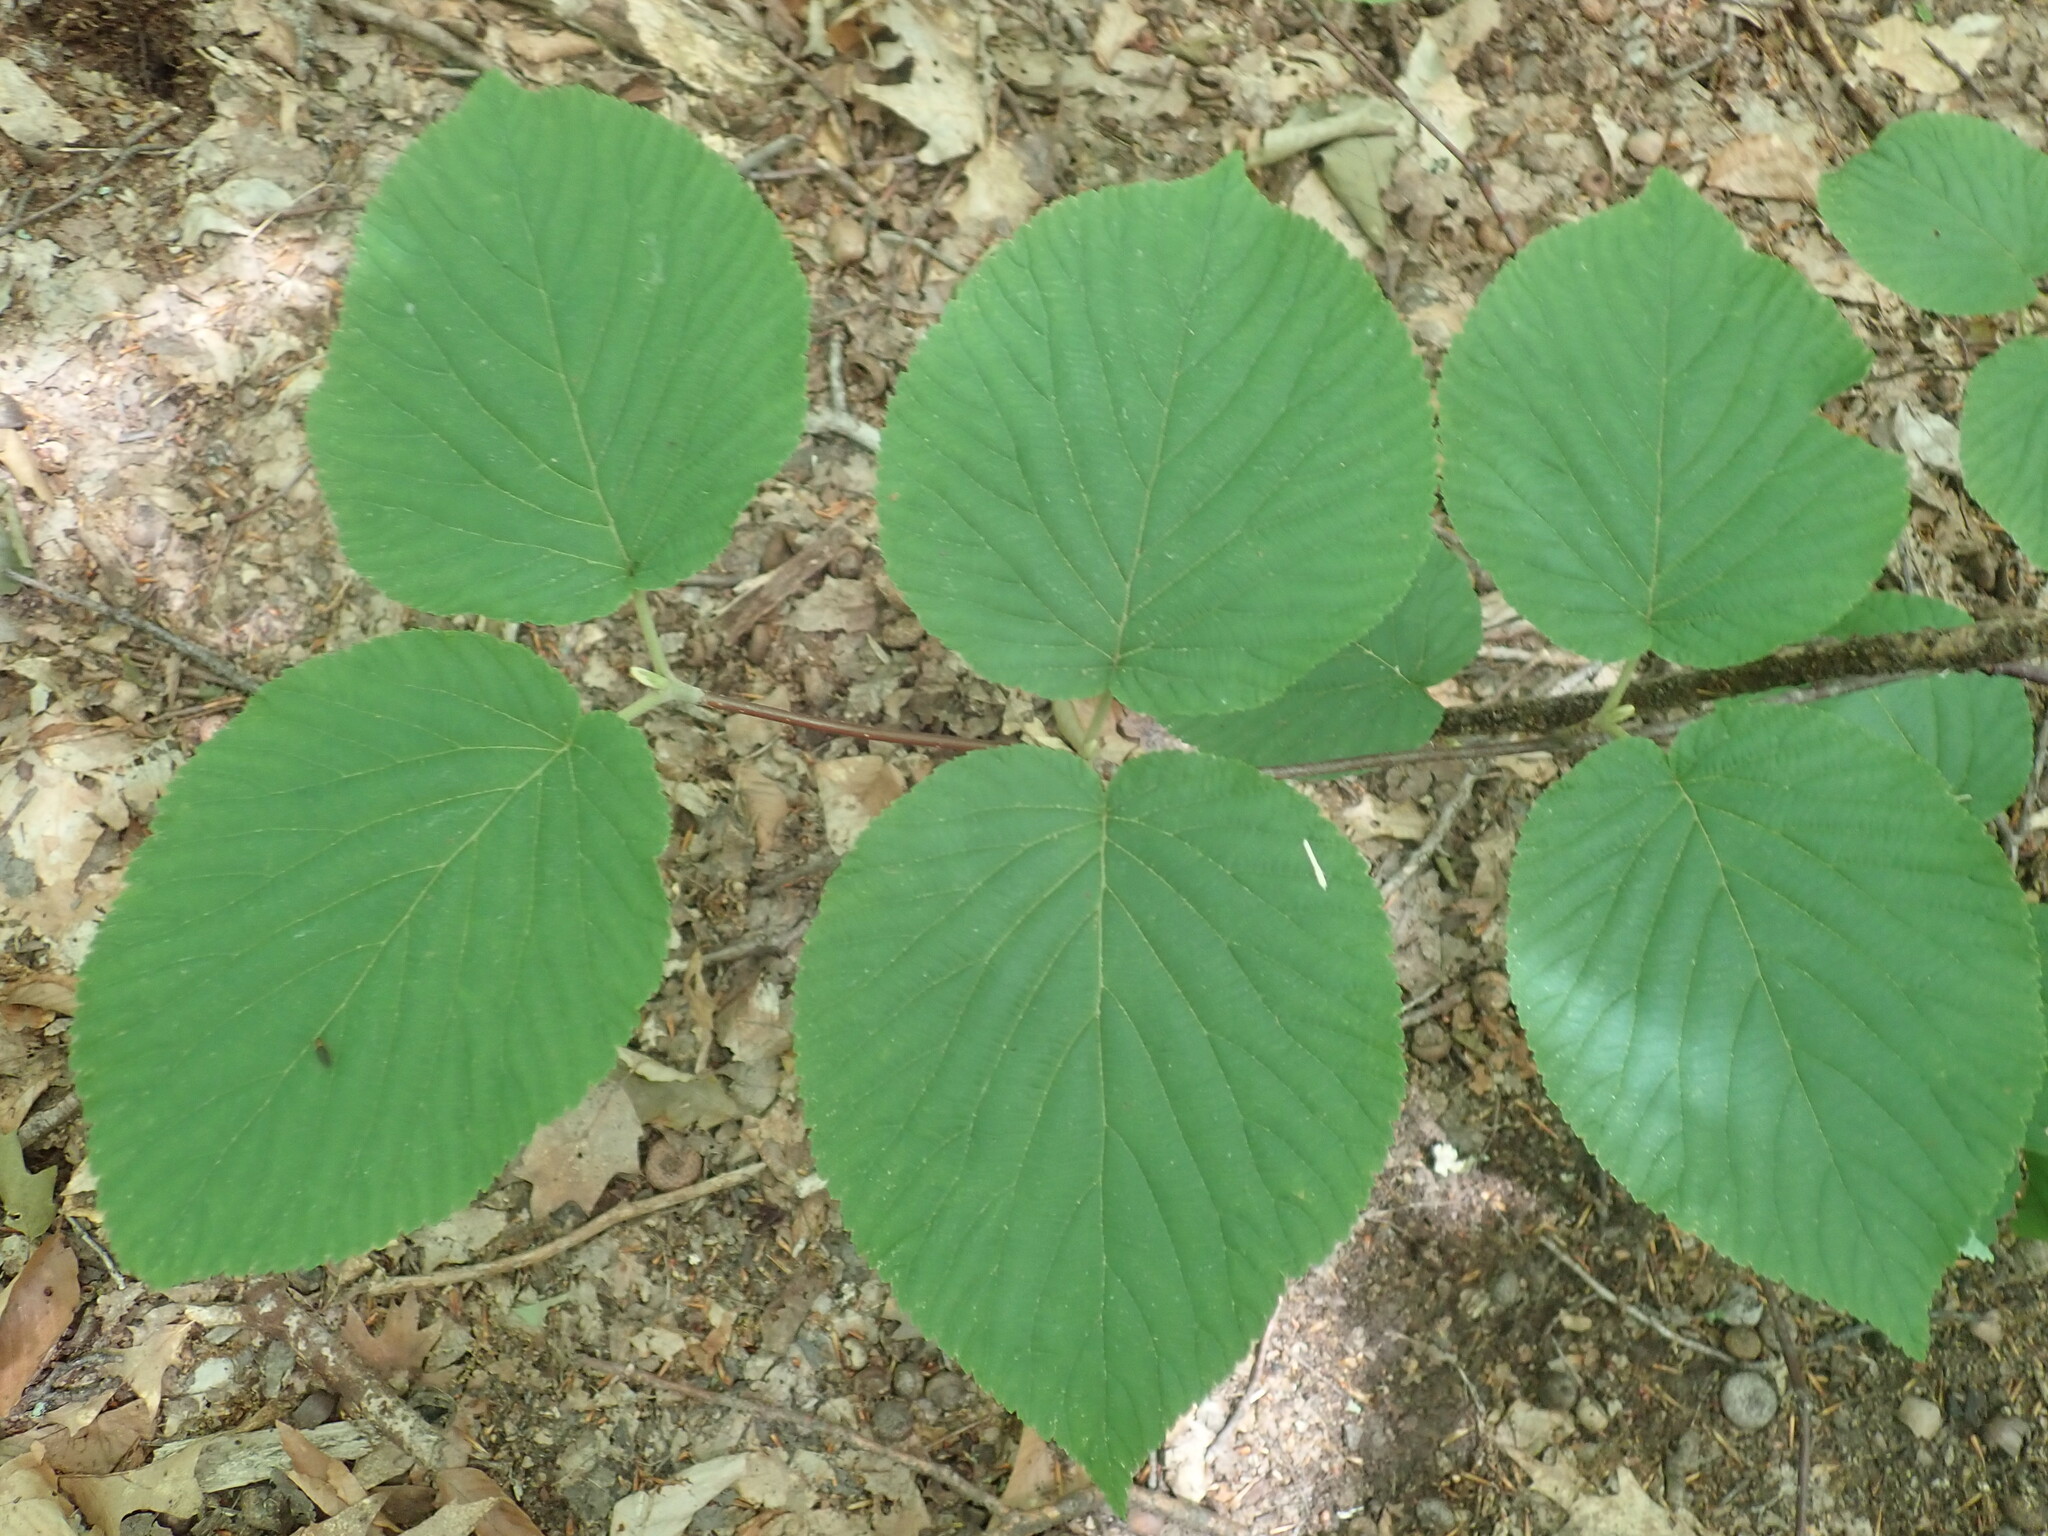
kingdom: Plantae
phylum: Tracheophyta
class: Magnoliopsida
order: Dipsacales
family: Viburnaceae
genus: Viburnum
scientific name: Viburnum lantanoides
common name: Hobblebush
